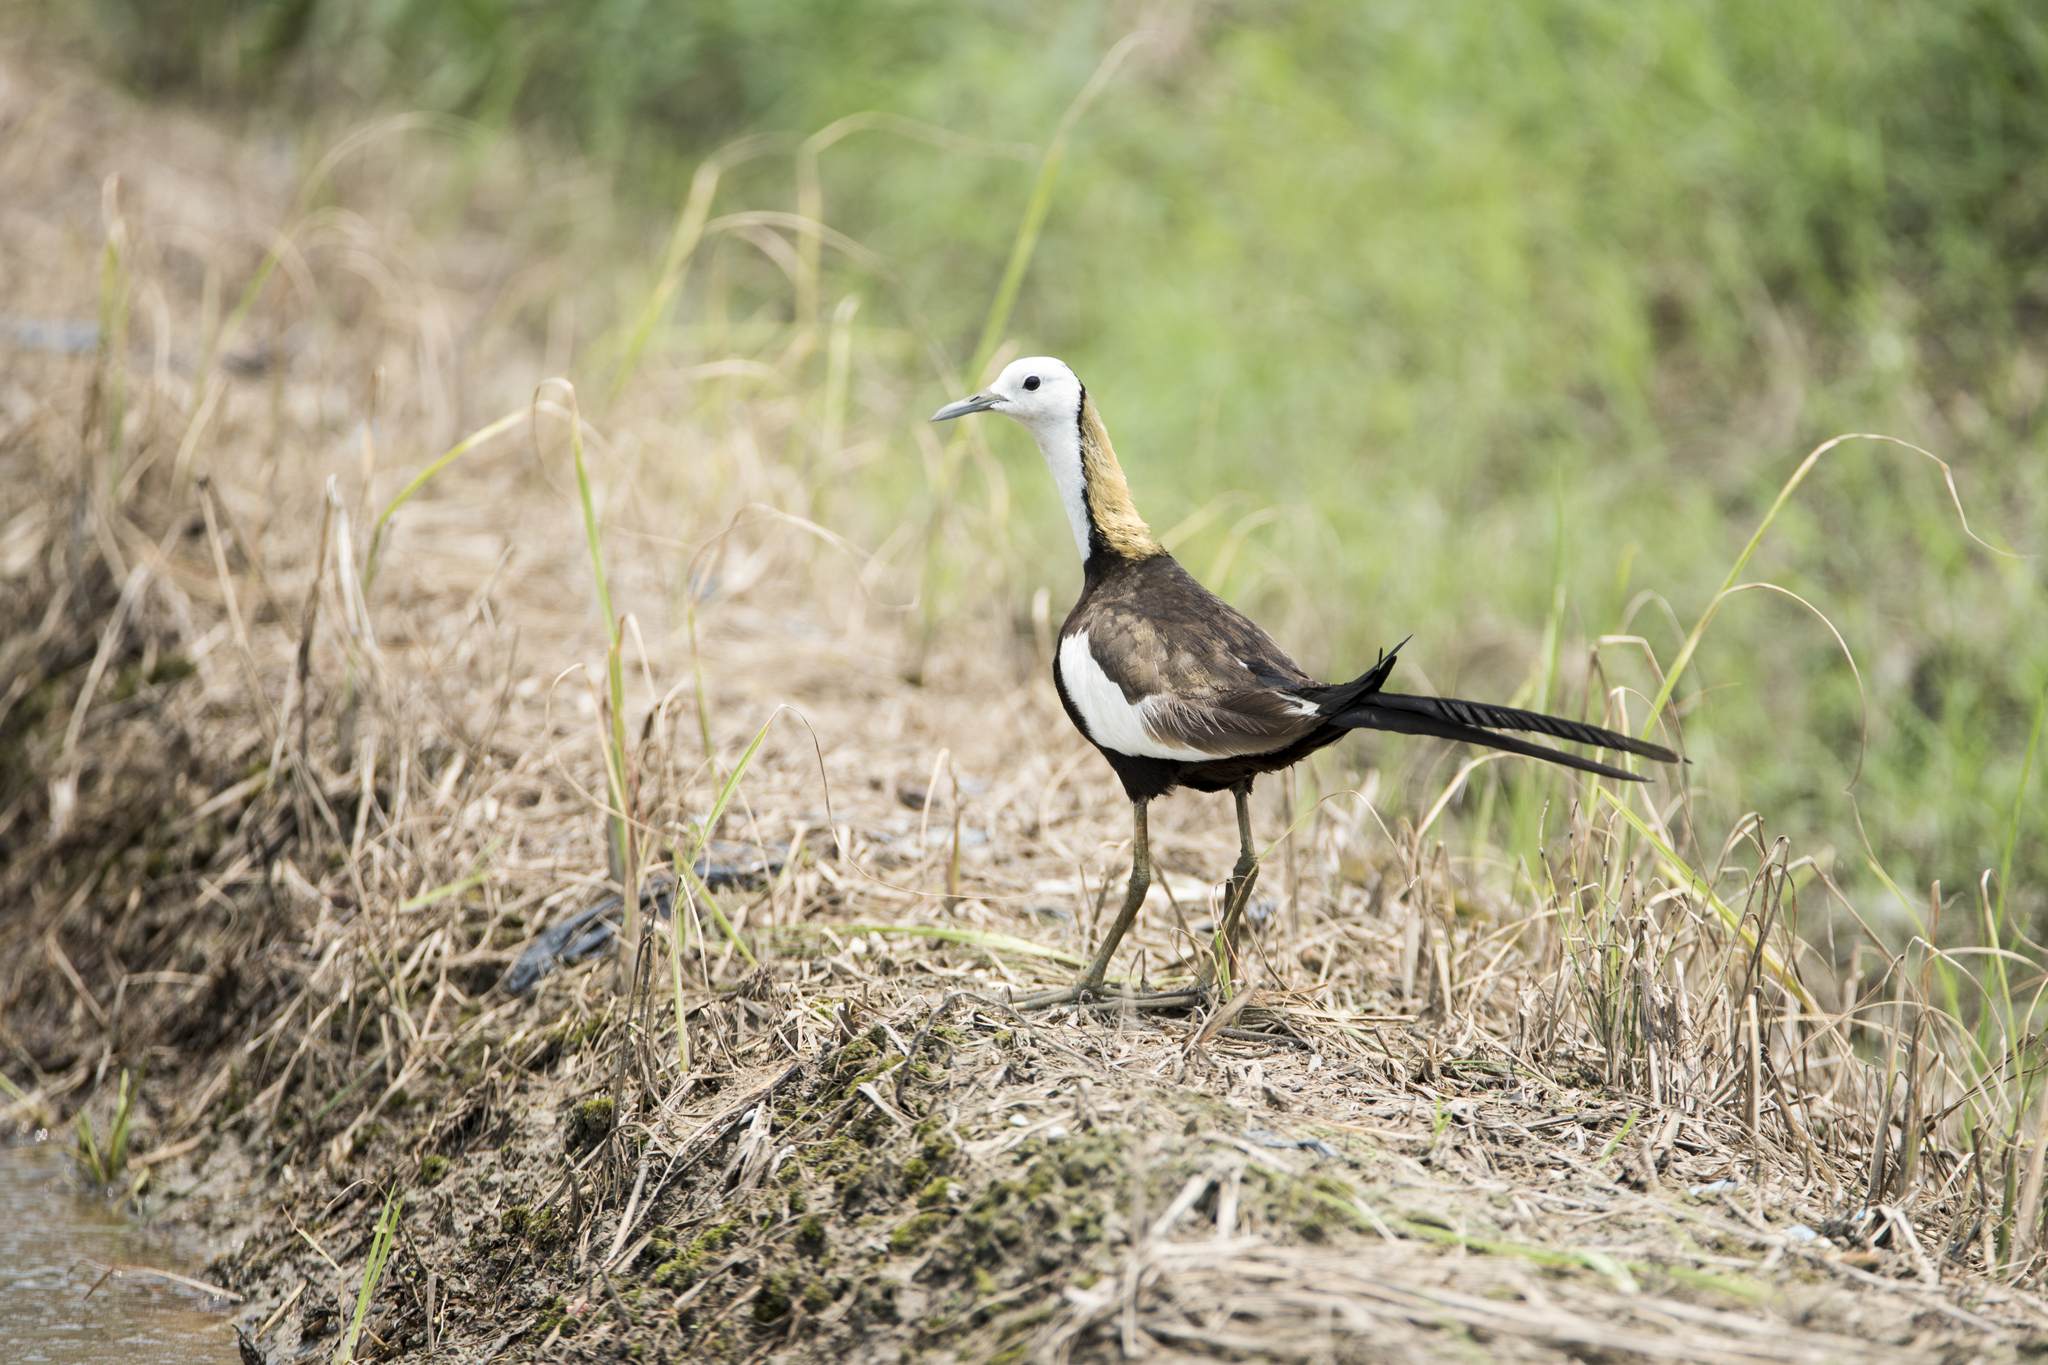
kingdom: Animalia
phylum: Chordata
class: Aves
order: Charadriiformes
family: Jacanidae
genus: Hydrophasianus
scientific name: Hydrophasianus chirurgus
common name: Pheasant-tailed jacana
